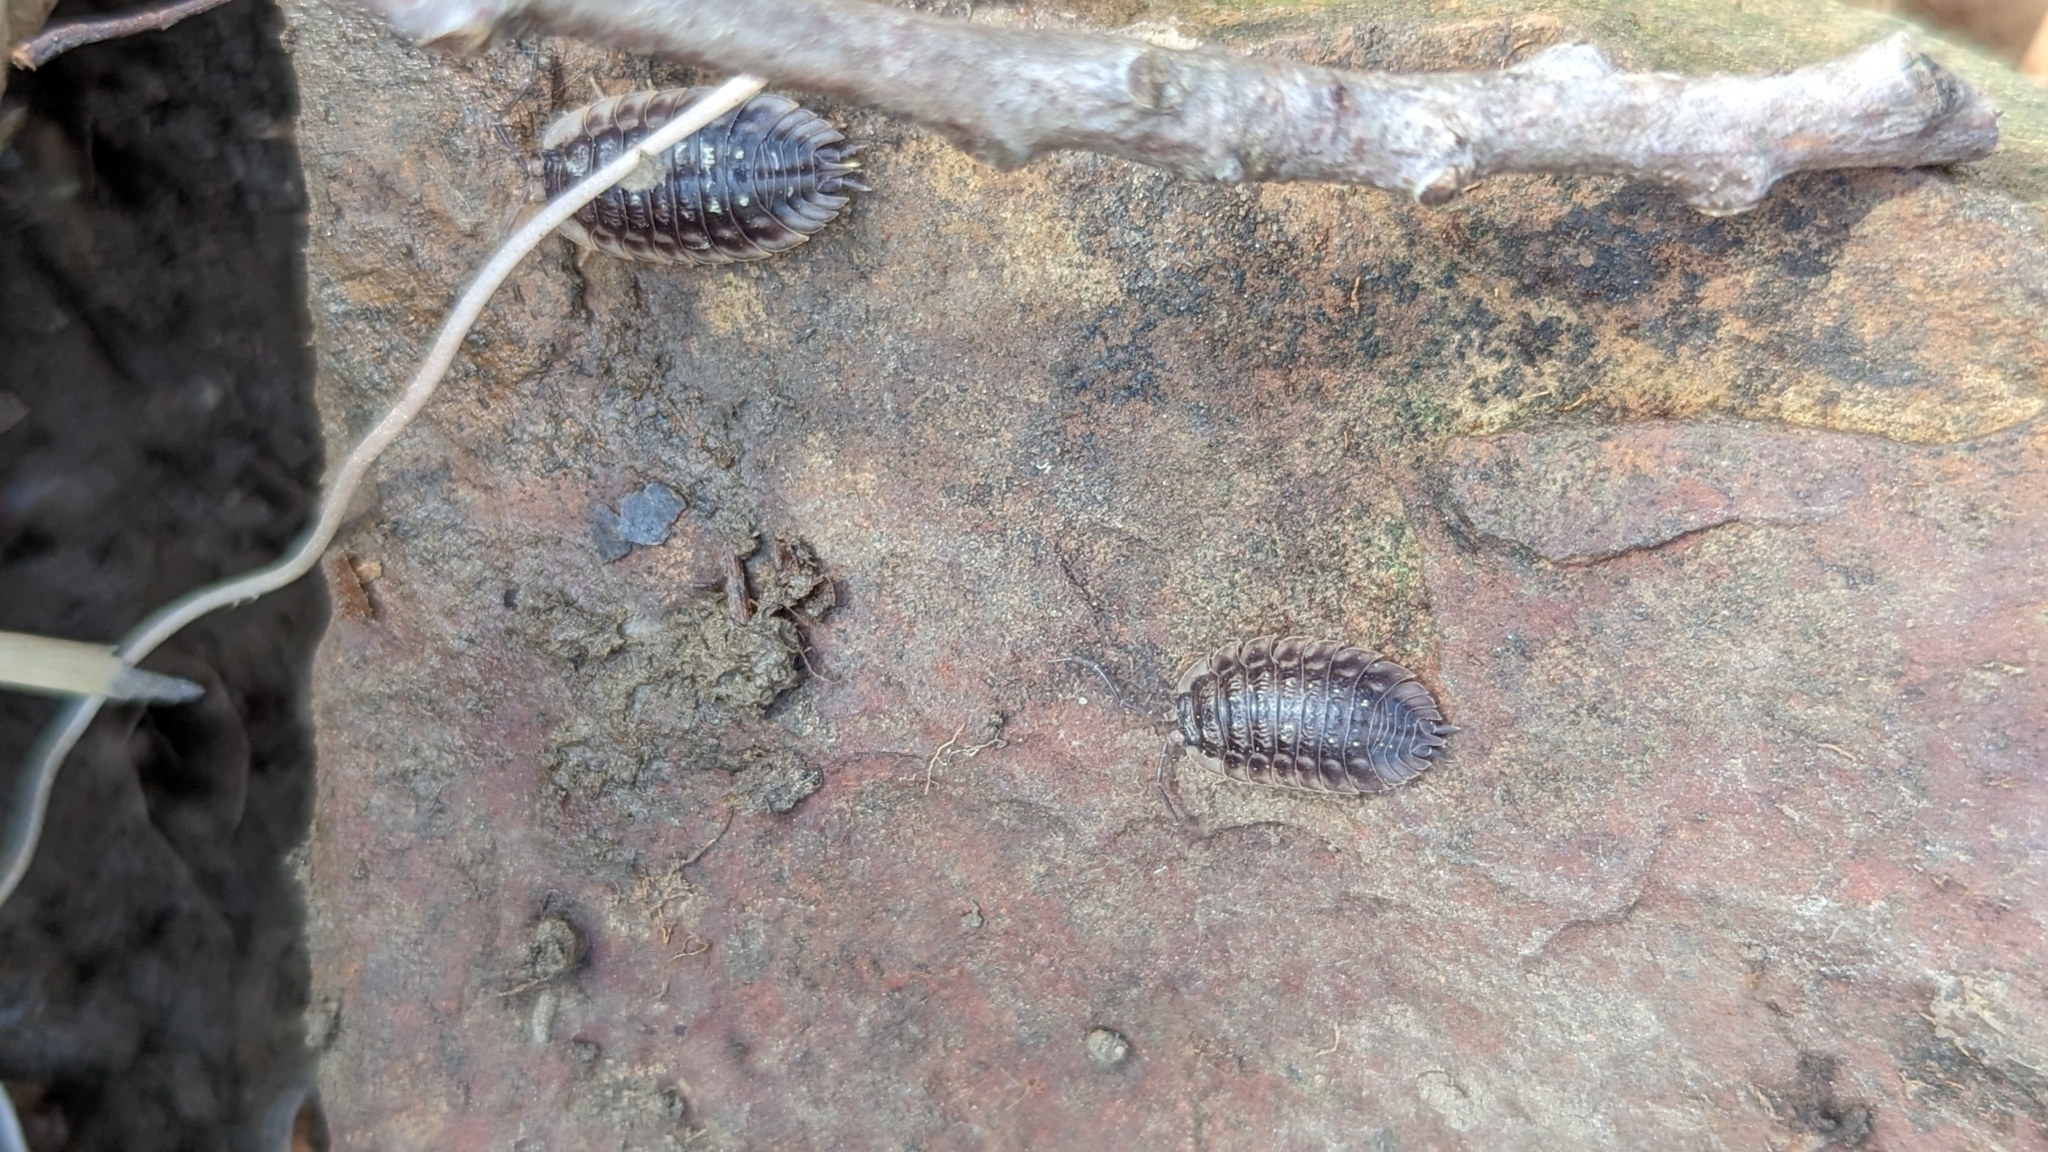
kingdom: Animalia
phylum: Arthropoda
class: Malacostraca
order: Isopoda
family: Oniscidae
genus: Oniscus
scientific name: Oniscus asellus
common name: Common shiny woodlouse
